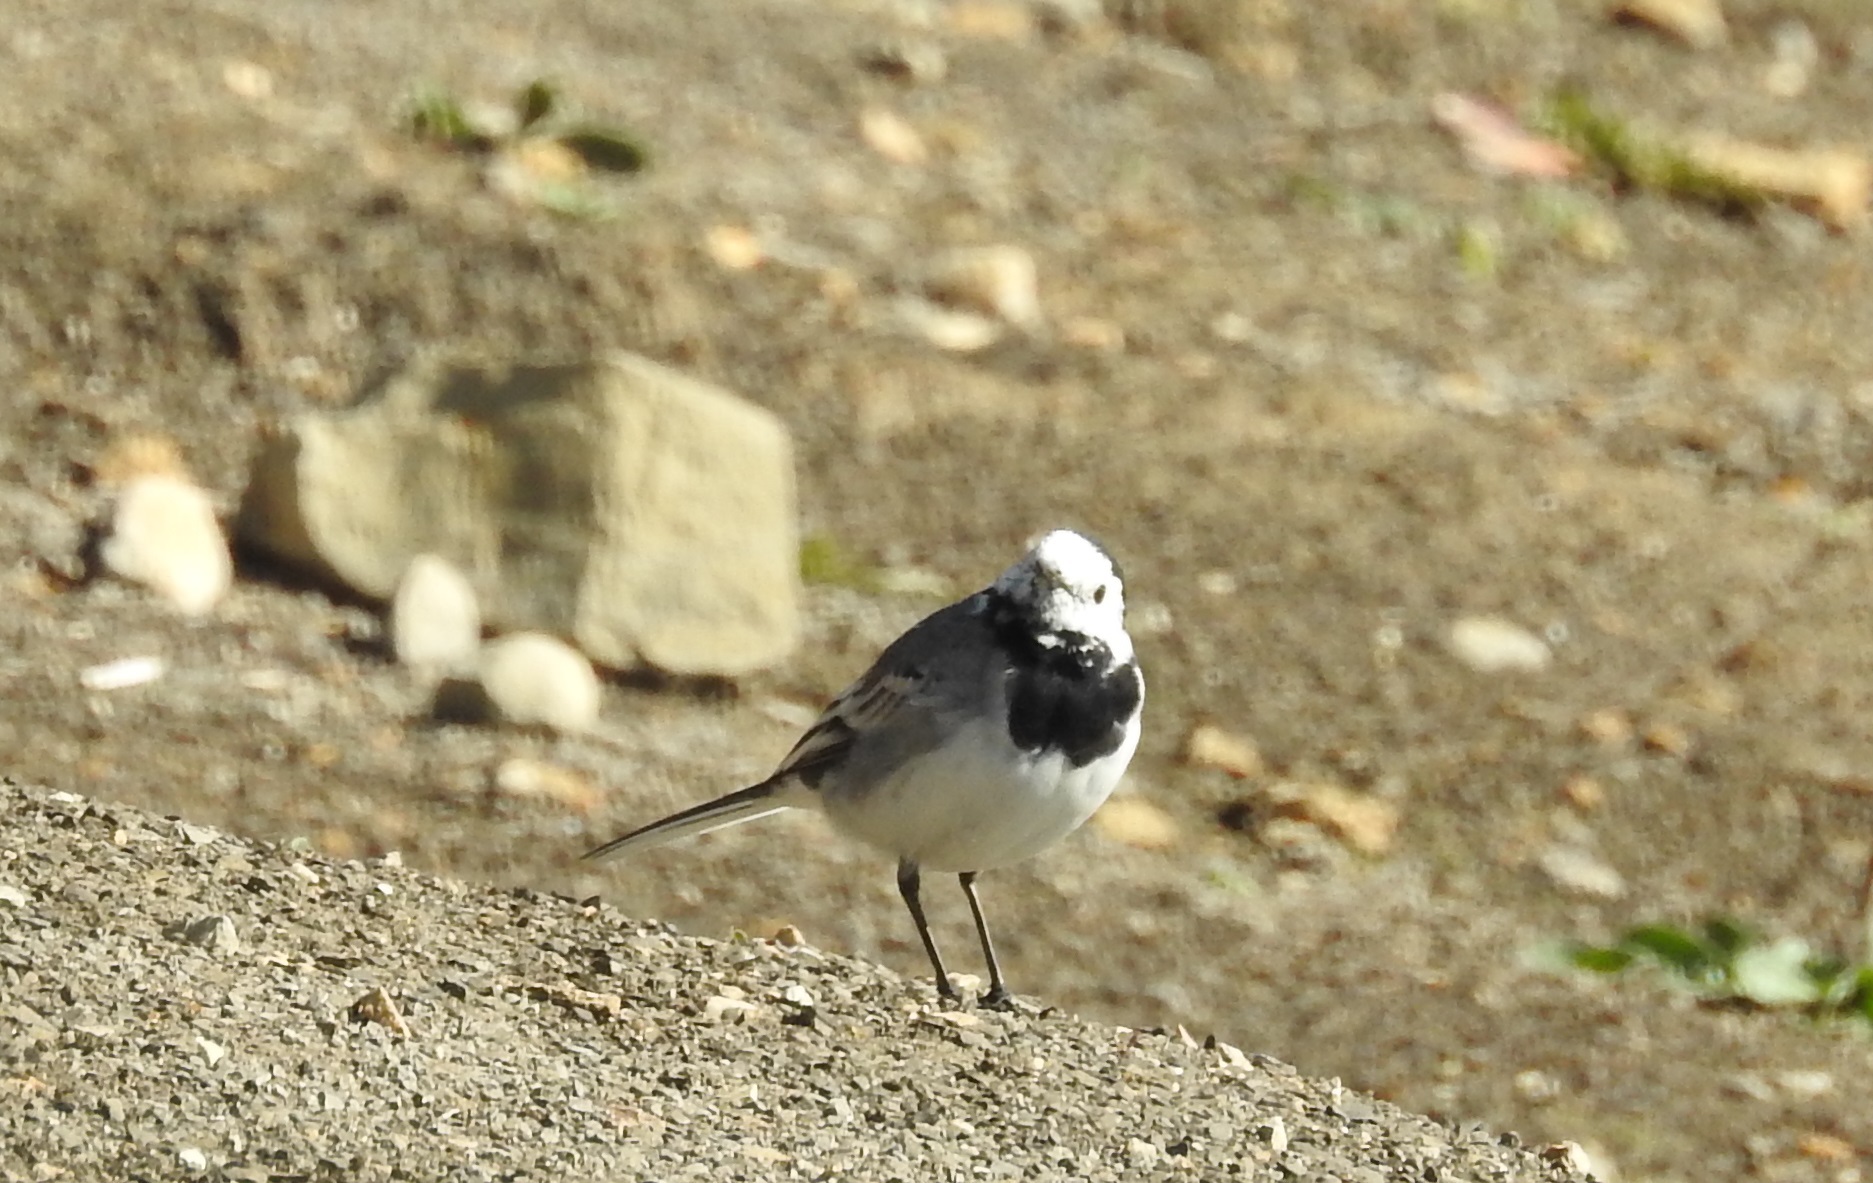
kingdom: Animalia
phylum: Chordata
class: Aves
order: Passeriformes
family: Motacillidae
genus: Motacilla
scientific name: Motacilla alba
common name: White wagtail
